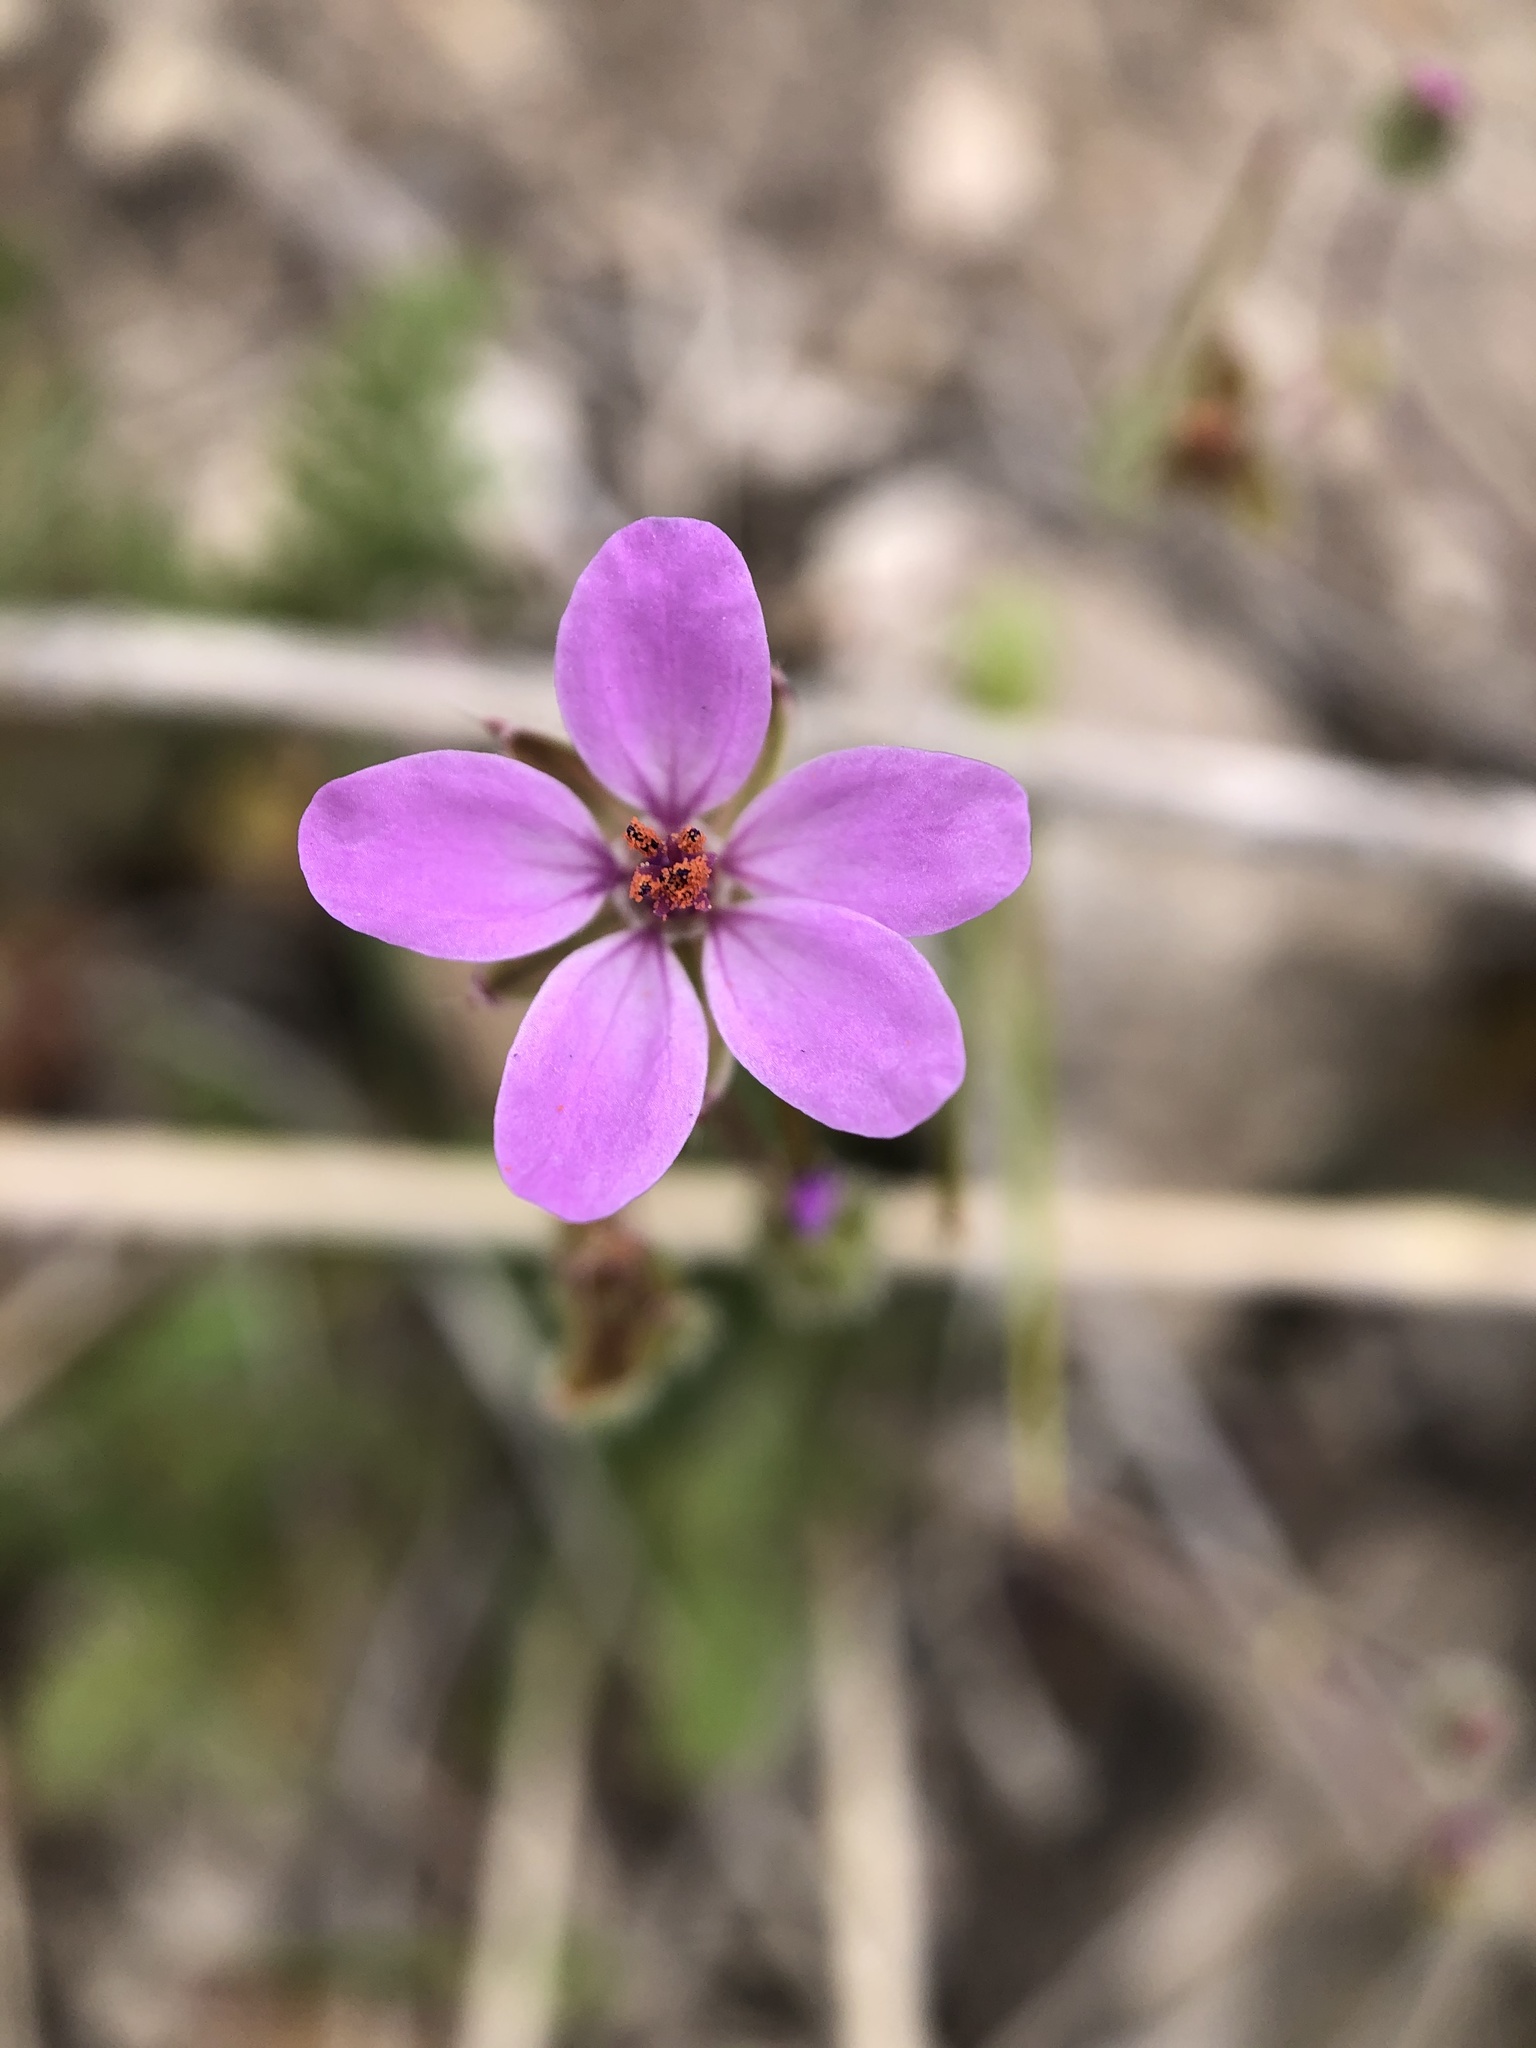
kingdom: Plantae
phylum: Tracheophyta
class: Magnoliopsida
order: Geraniales
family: Geraniaceae
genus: Erodium
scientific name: Erodium cicutarium
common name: Common stork's-bill
